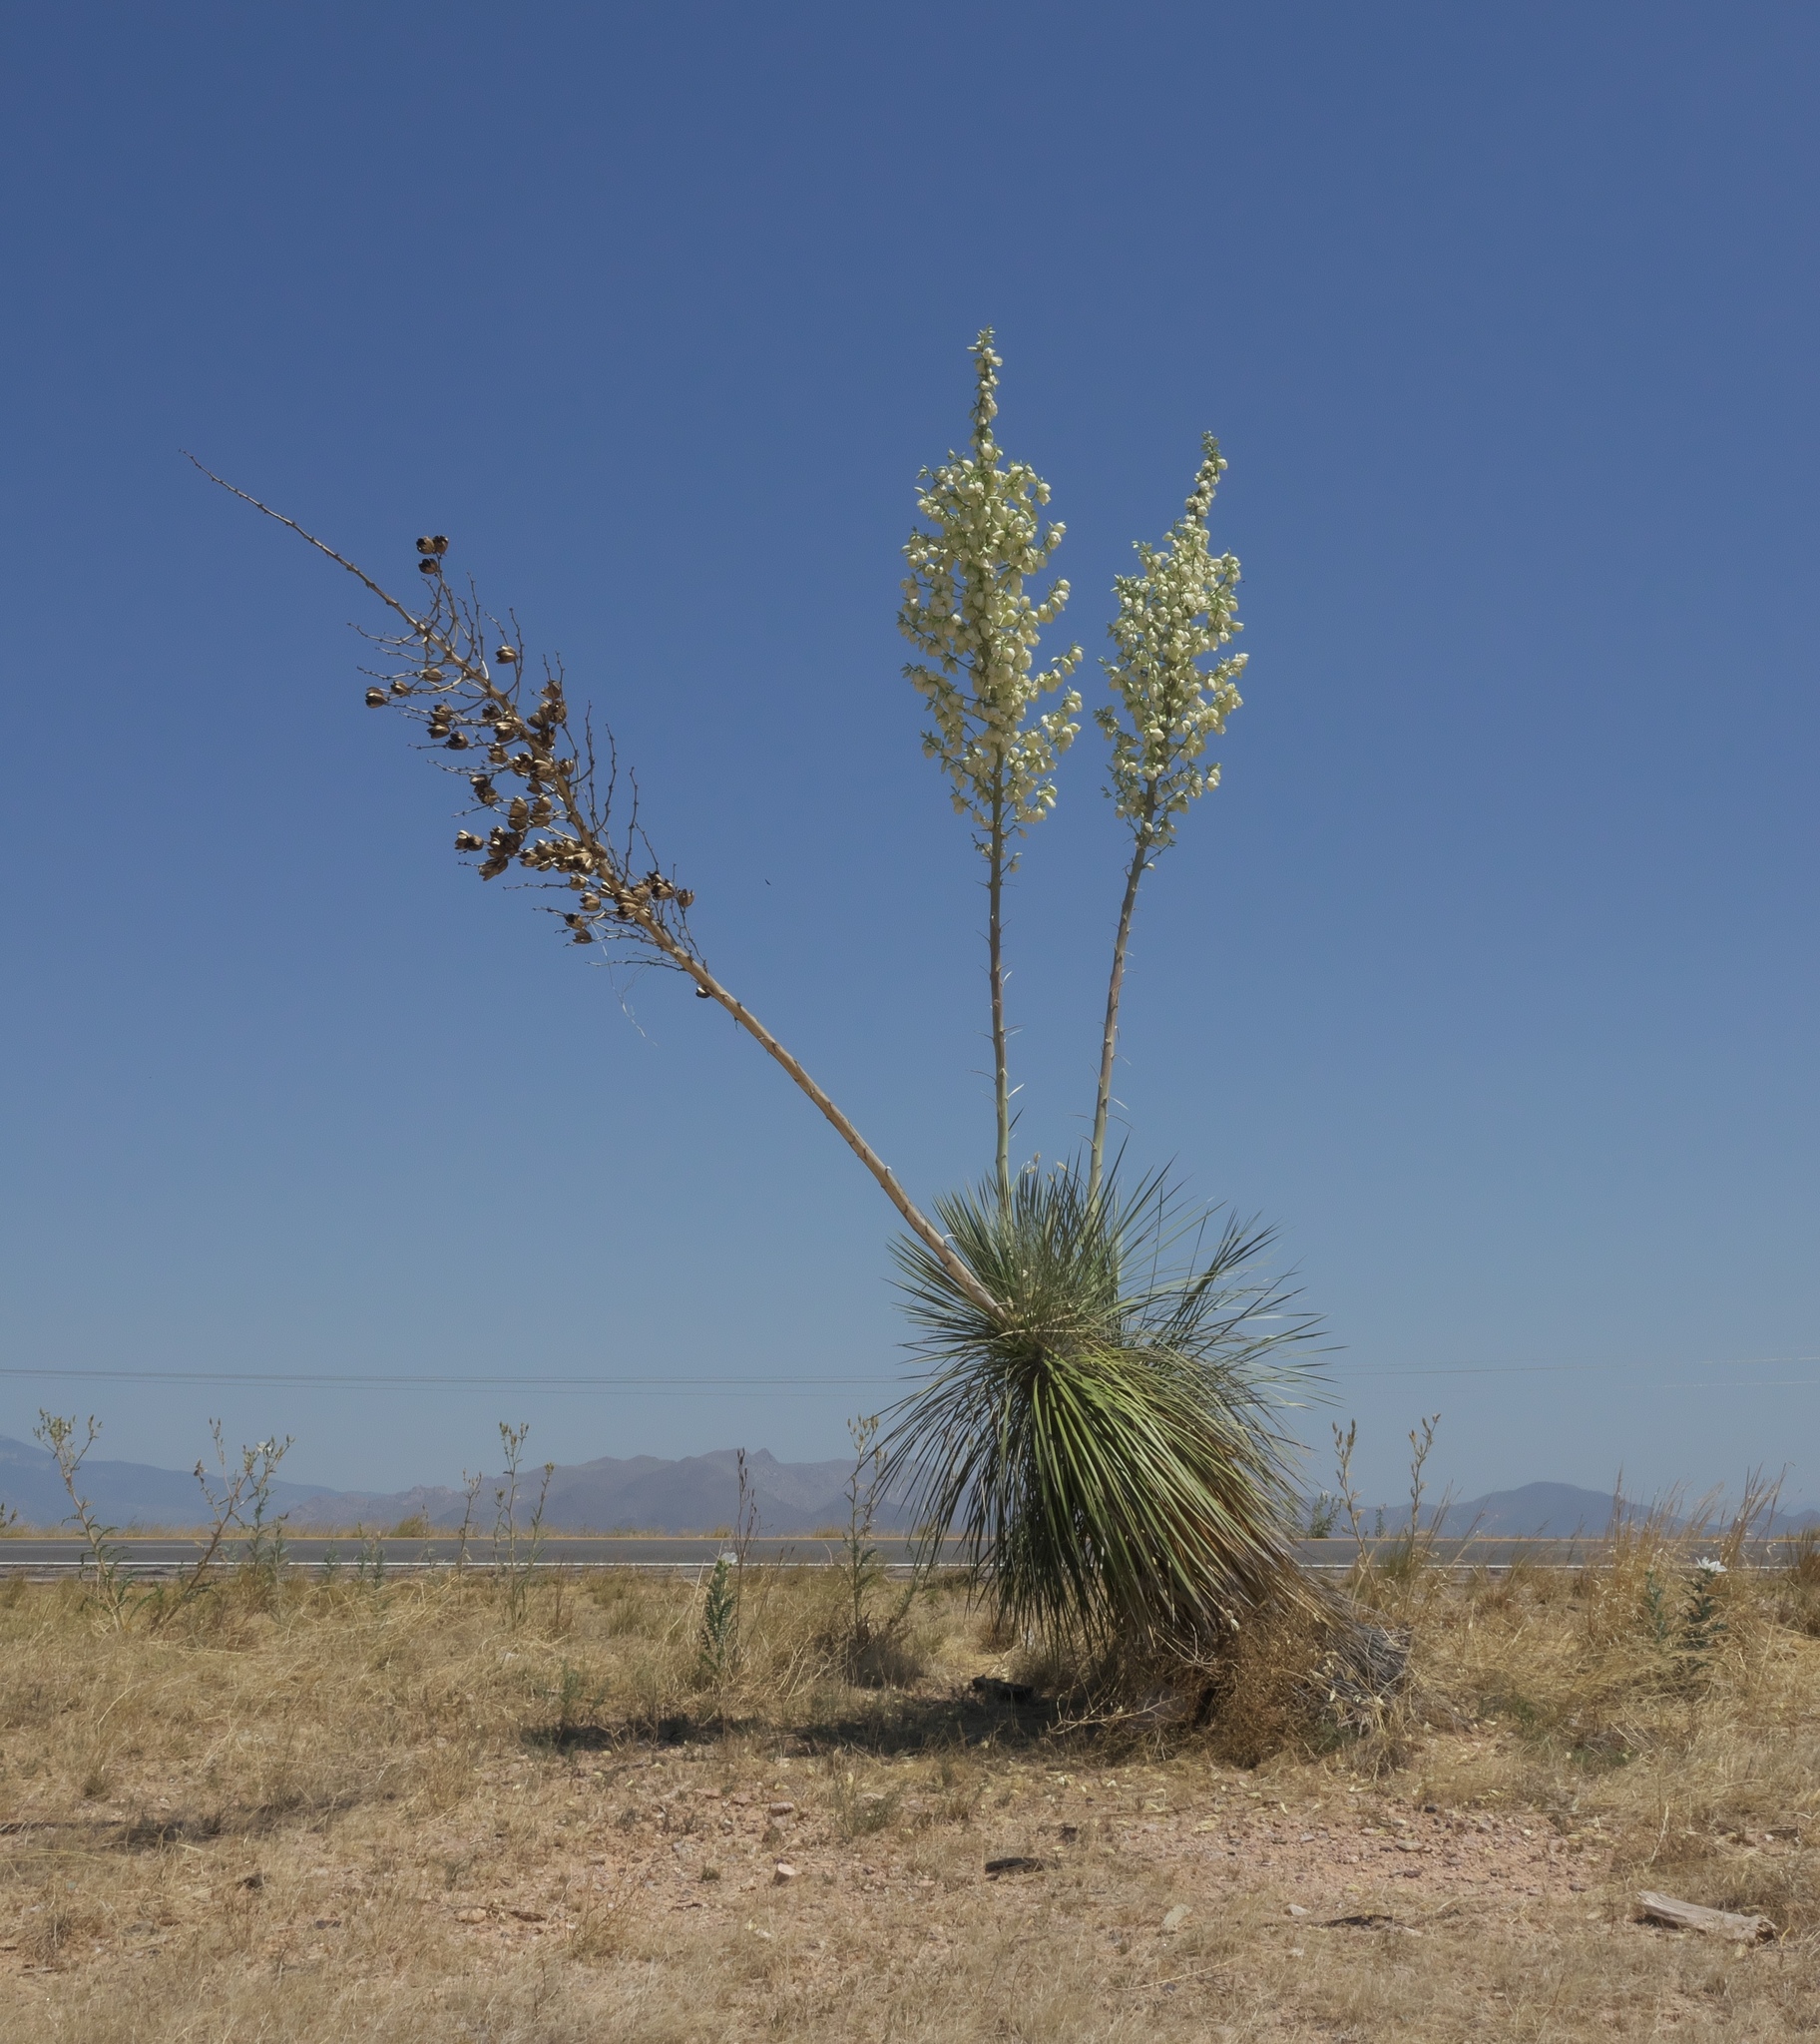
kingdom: Plantae
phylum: Tracheophyta
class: Liliopsida
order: Asparagales
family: Asparagaceae
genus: Yucca
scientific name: Yucca elata
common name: Palmella
